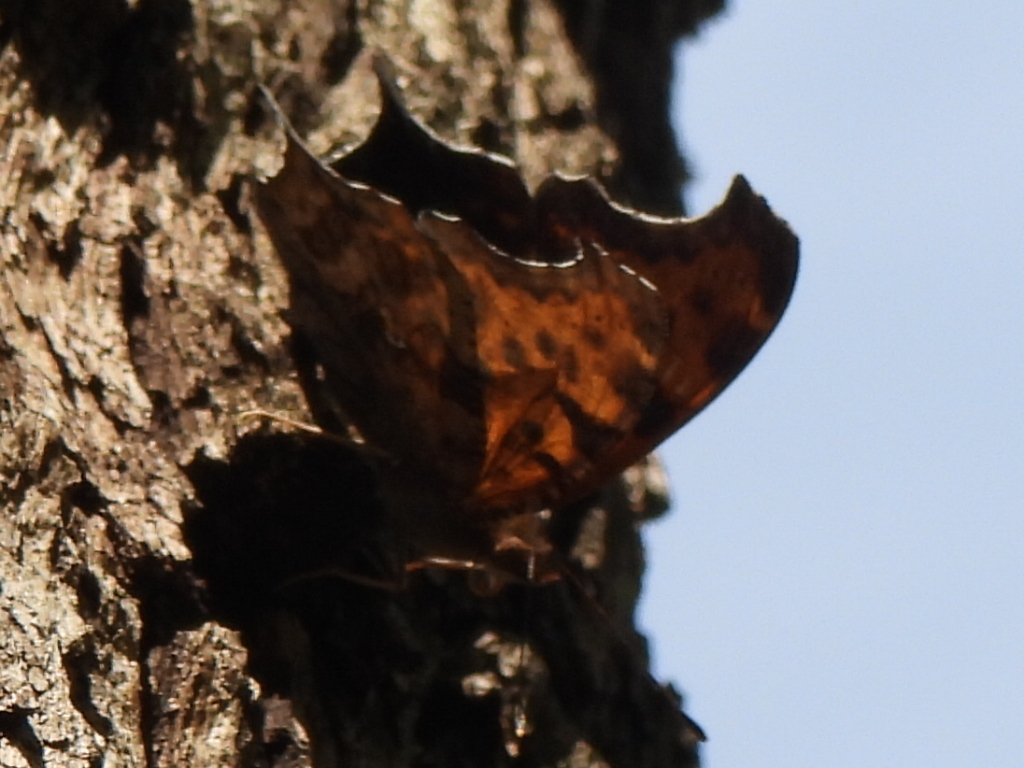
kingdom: Animalia
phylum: Arthropoda
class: Insecta
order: Lepidoptera
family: Nymphalidae
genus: Polygonia
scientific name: Polygonia interrogationis
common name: Question mark
